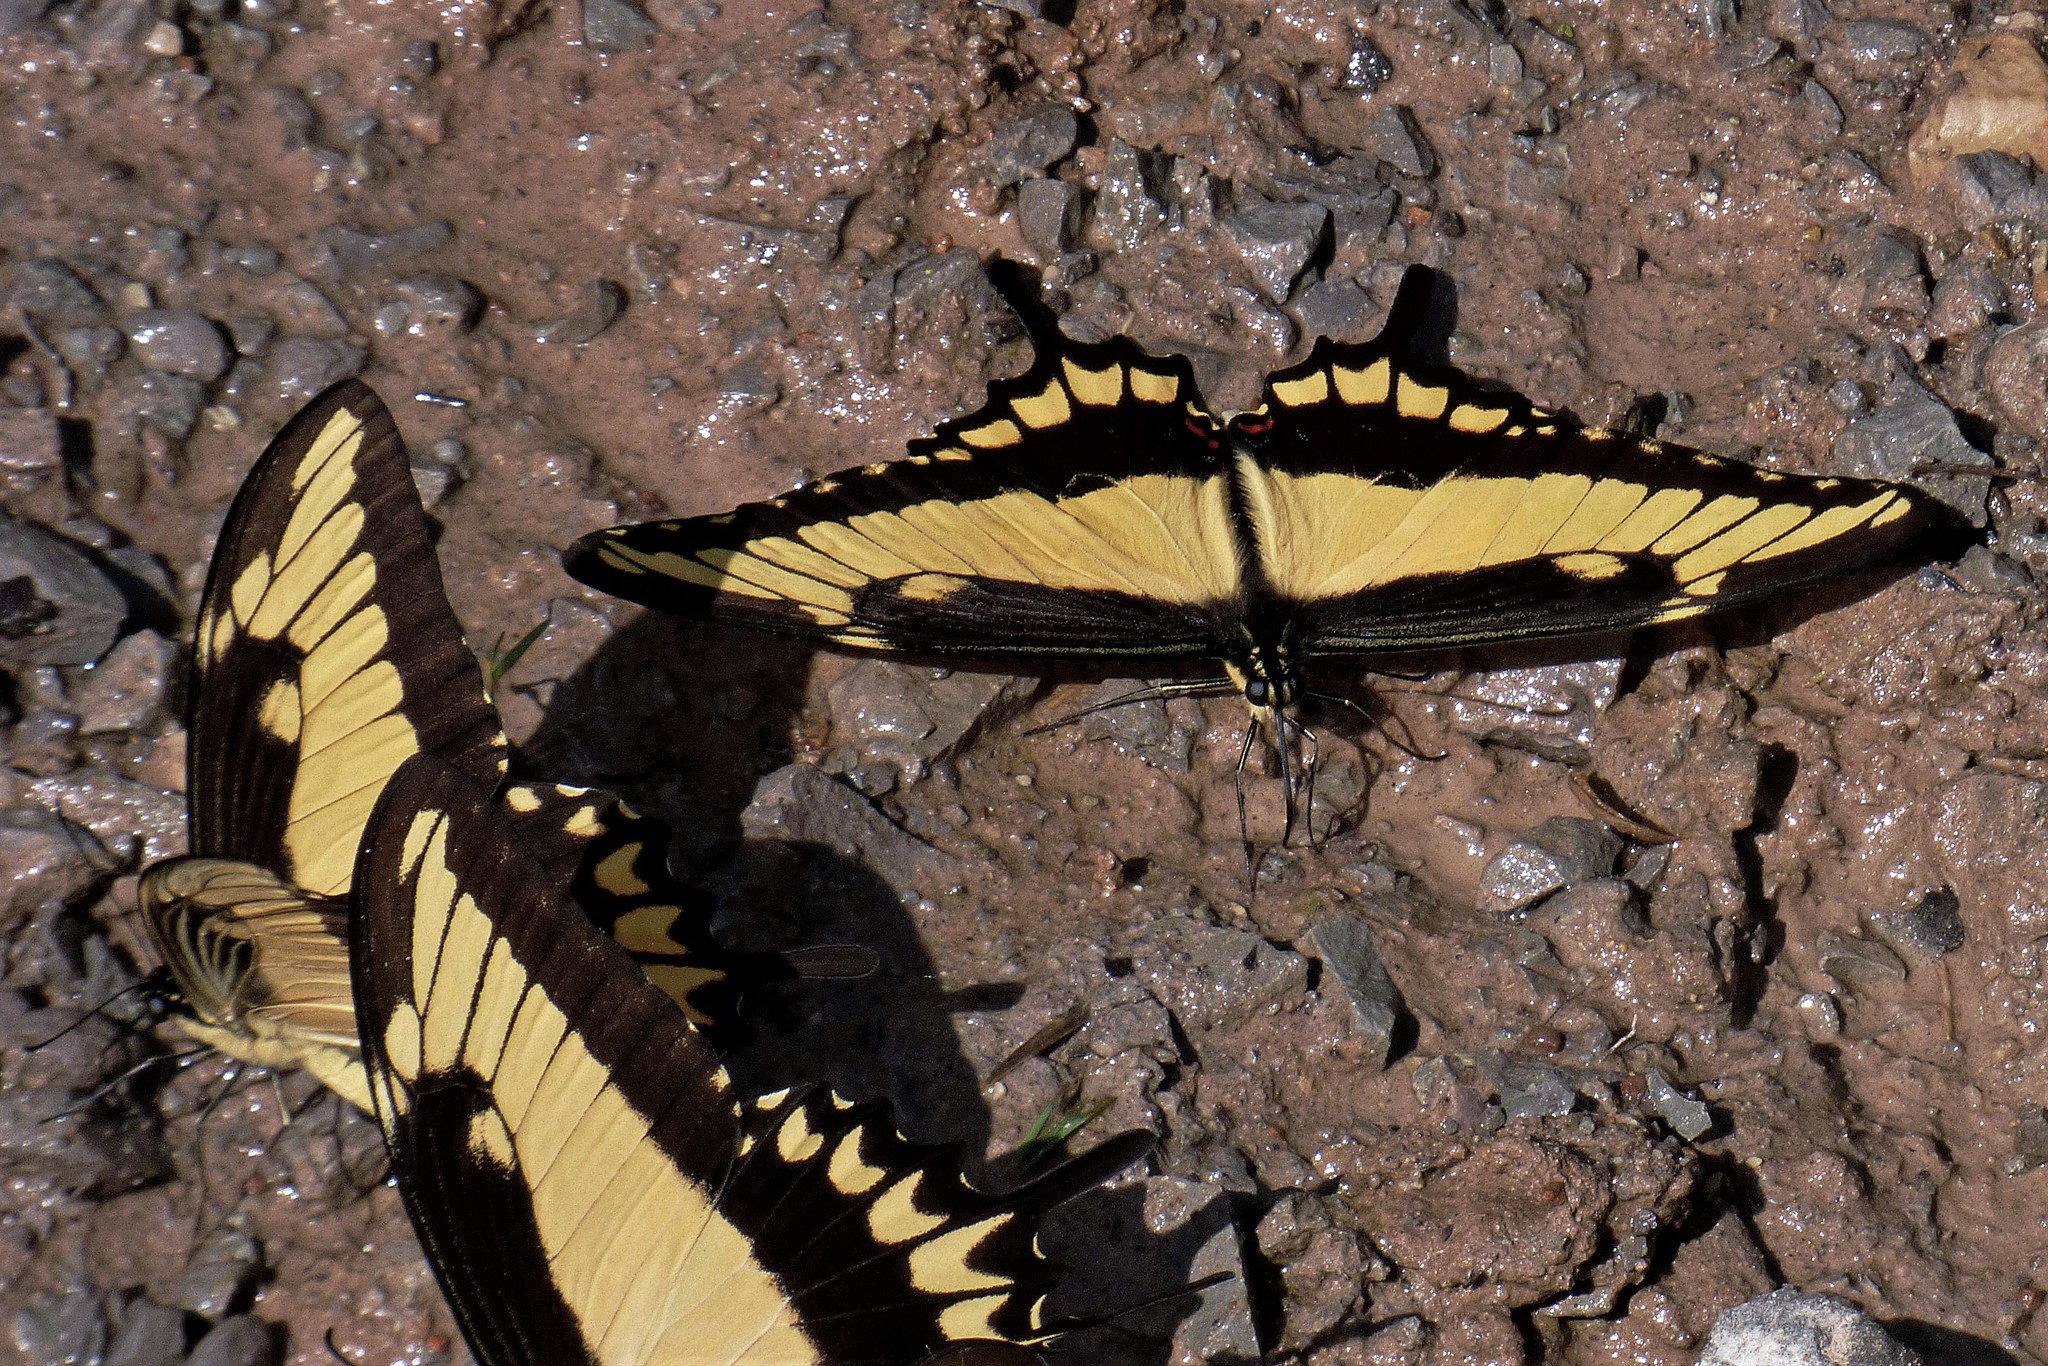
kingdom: Animalia
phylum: Arthropoda
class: Insecta
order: Lepidoptera
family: Papilionidae
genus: Papilio
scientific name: Papilio astyalus
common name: Astyalus swallowtail
